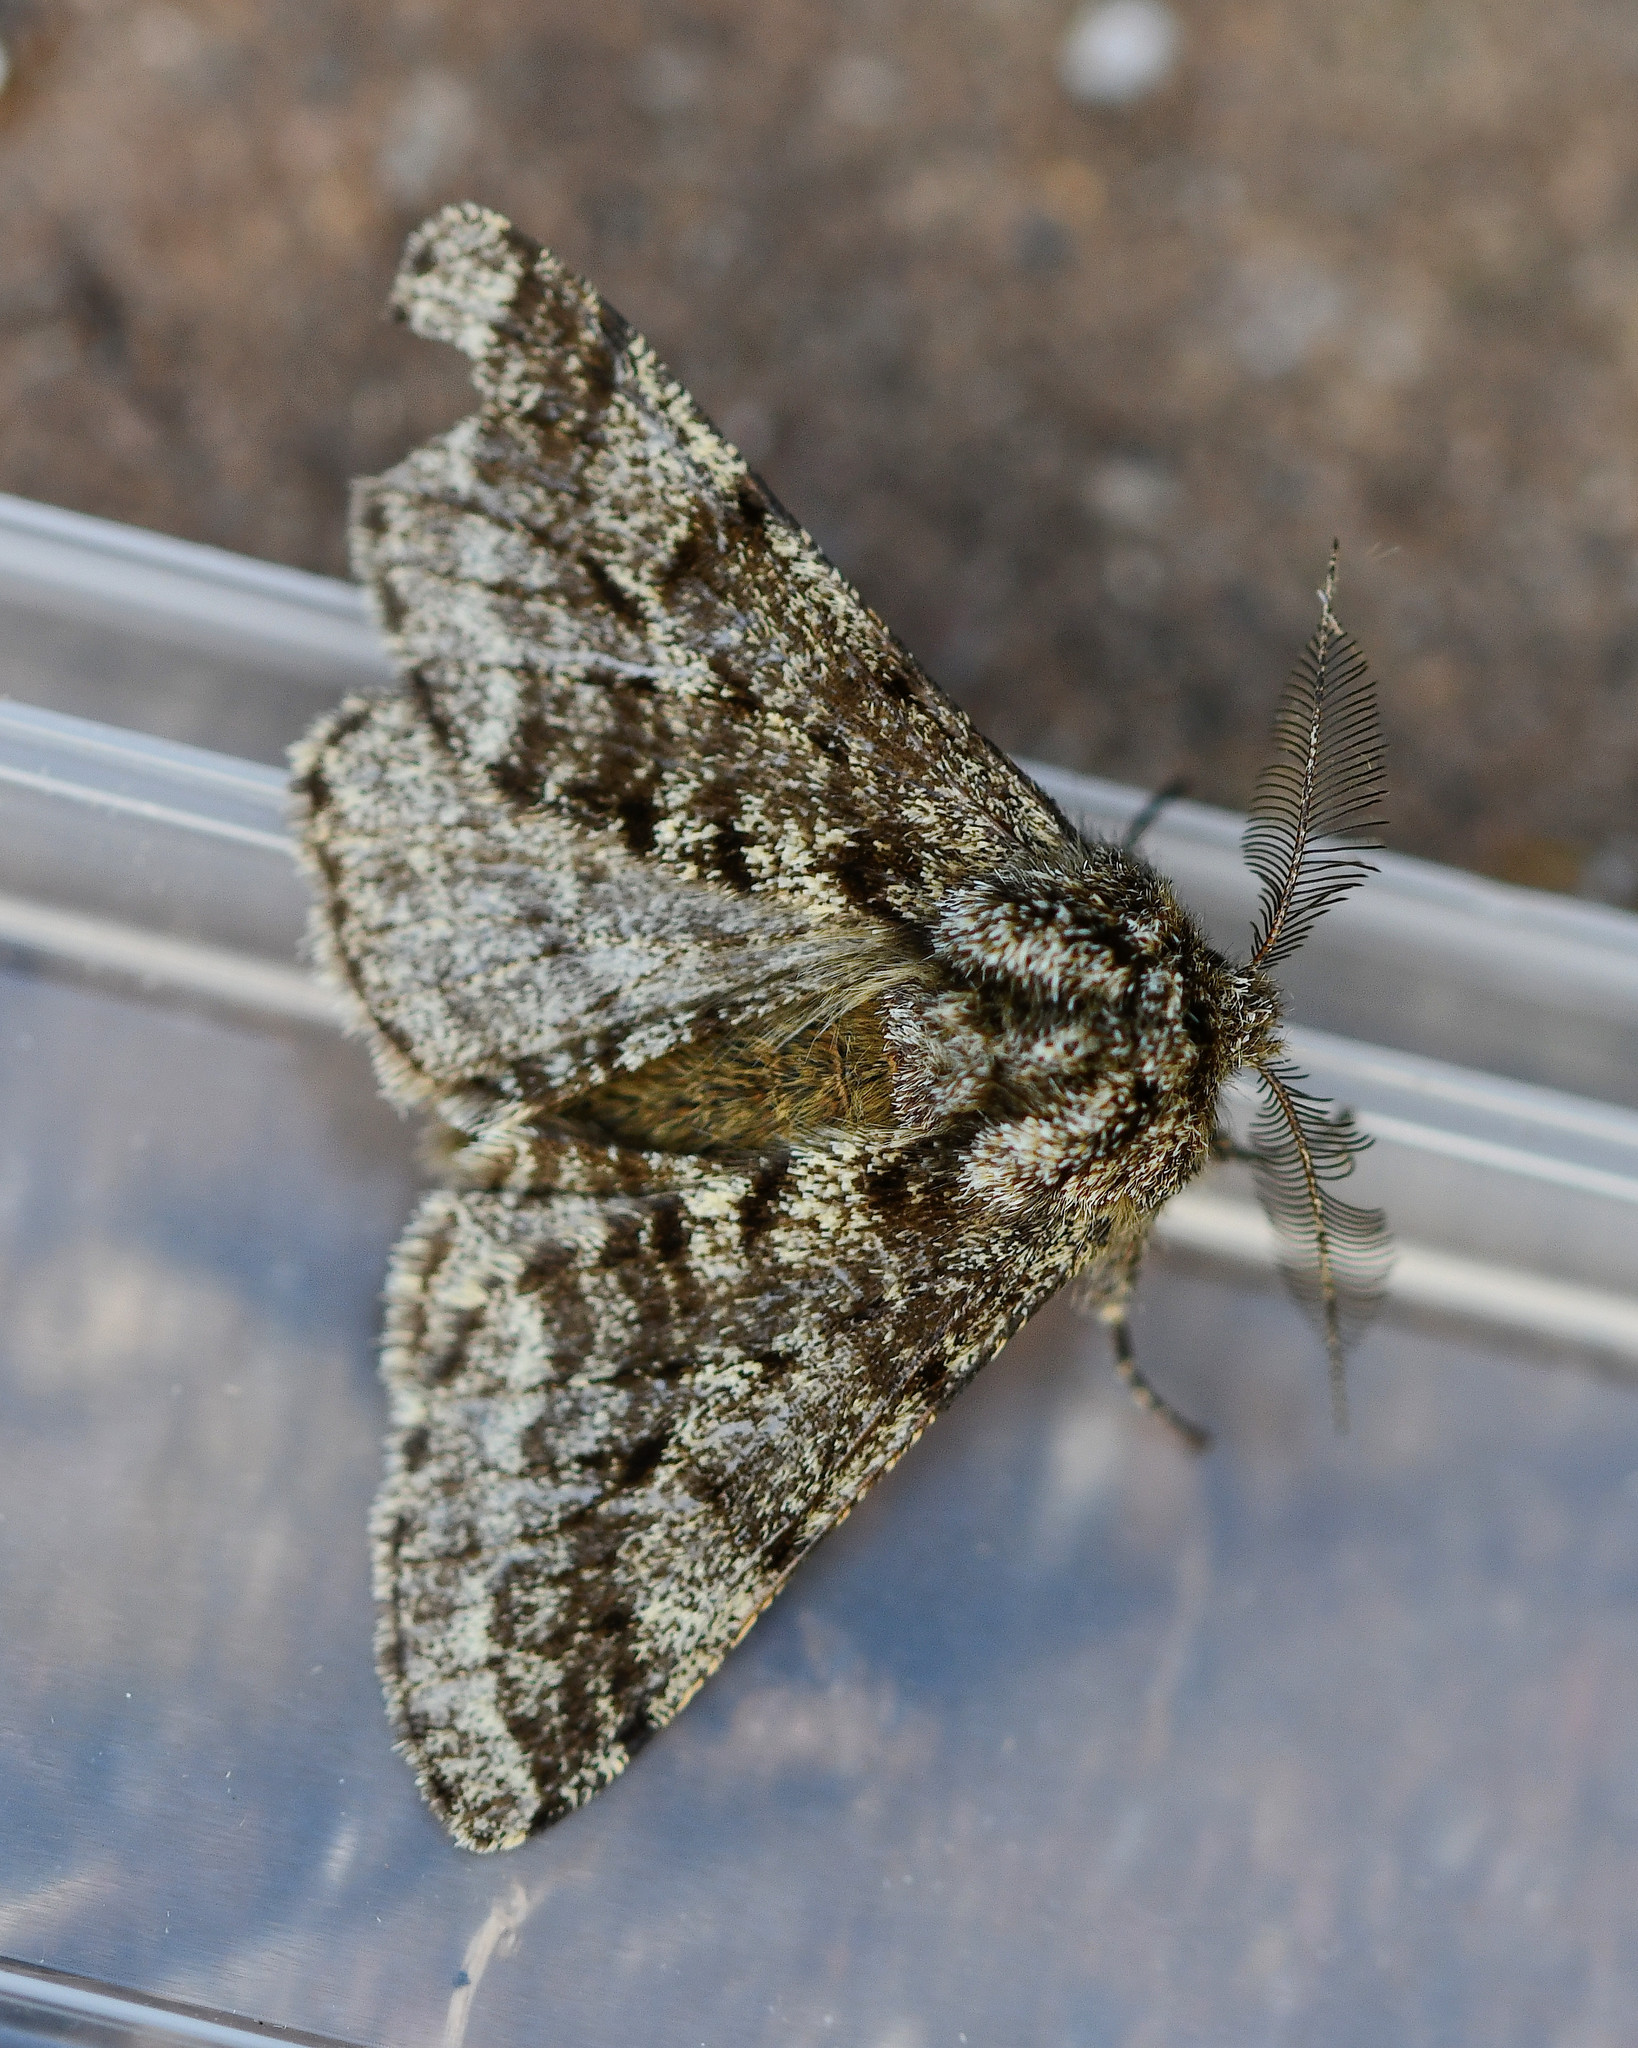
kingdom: Animalia
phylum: Arthropoda
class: Insecta
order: Lepidoptera
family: Geometridae
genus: Lycia
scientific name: Lycia hirtaria
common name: Brindled beauty
